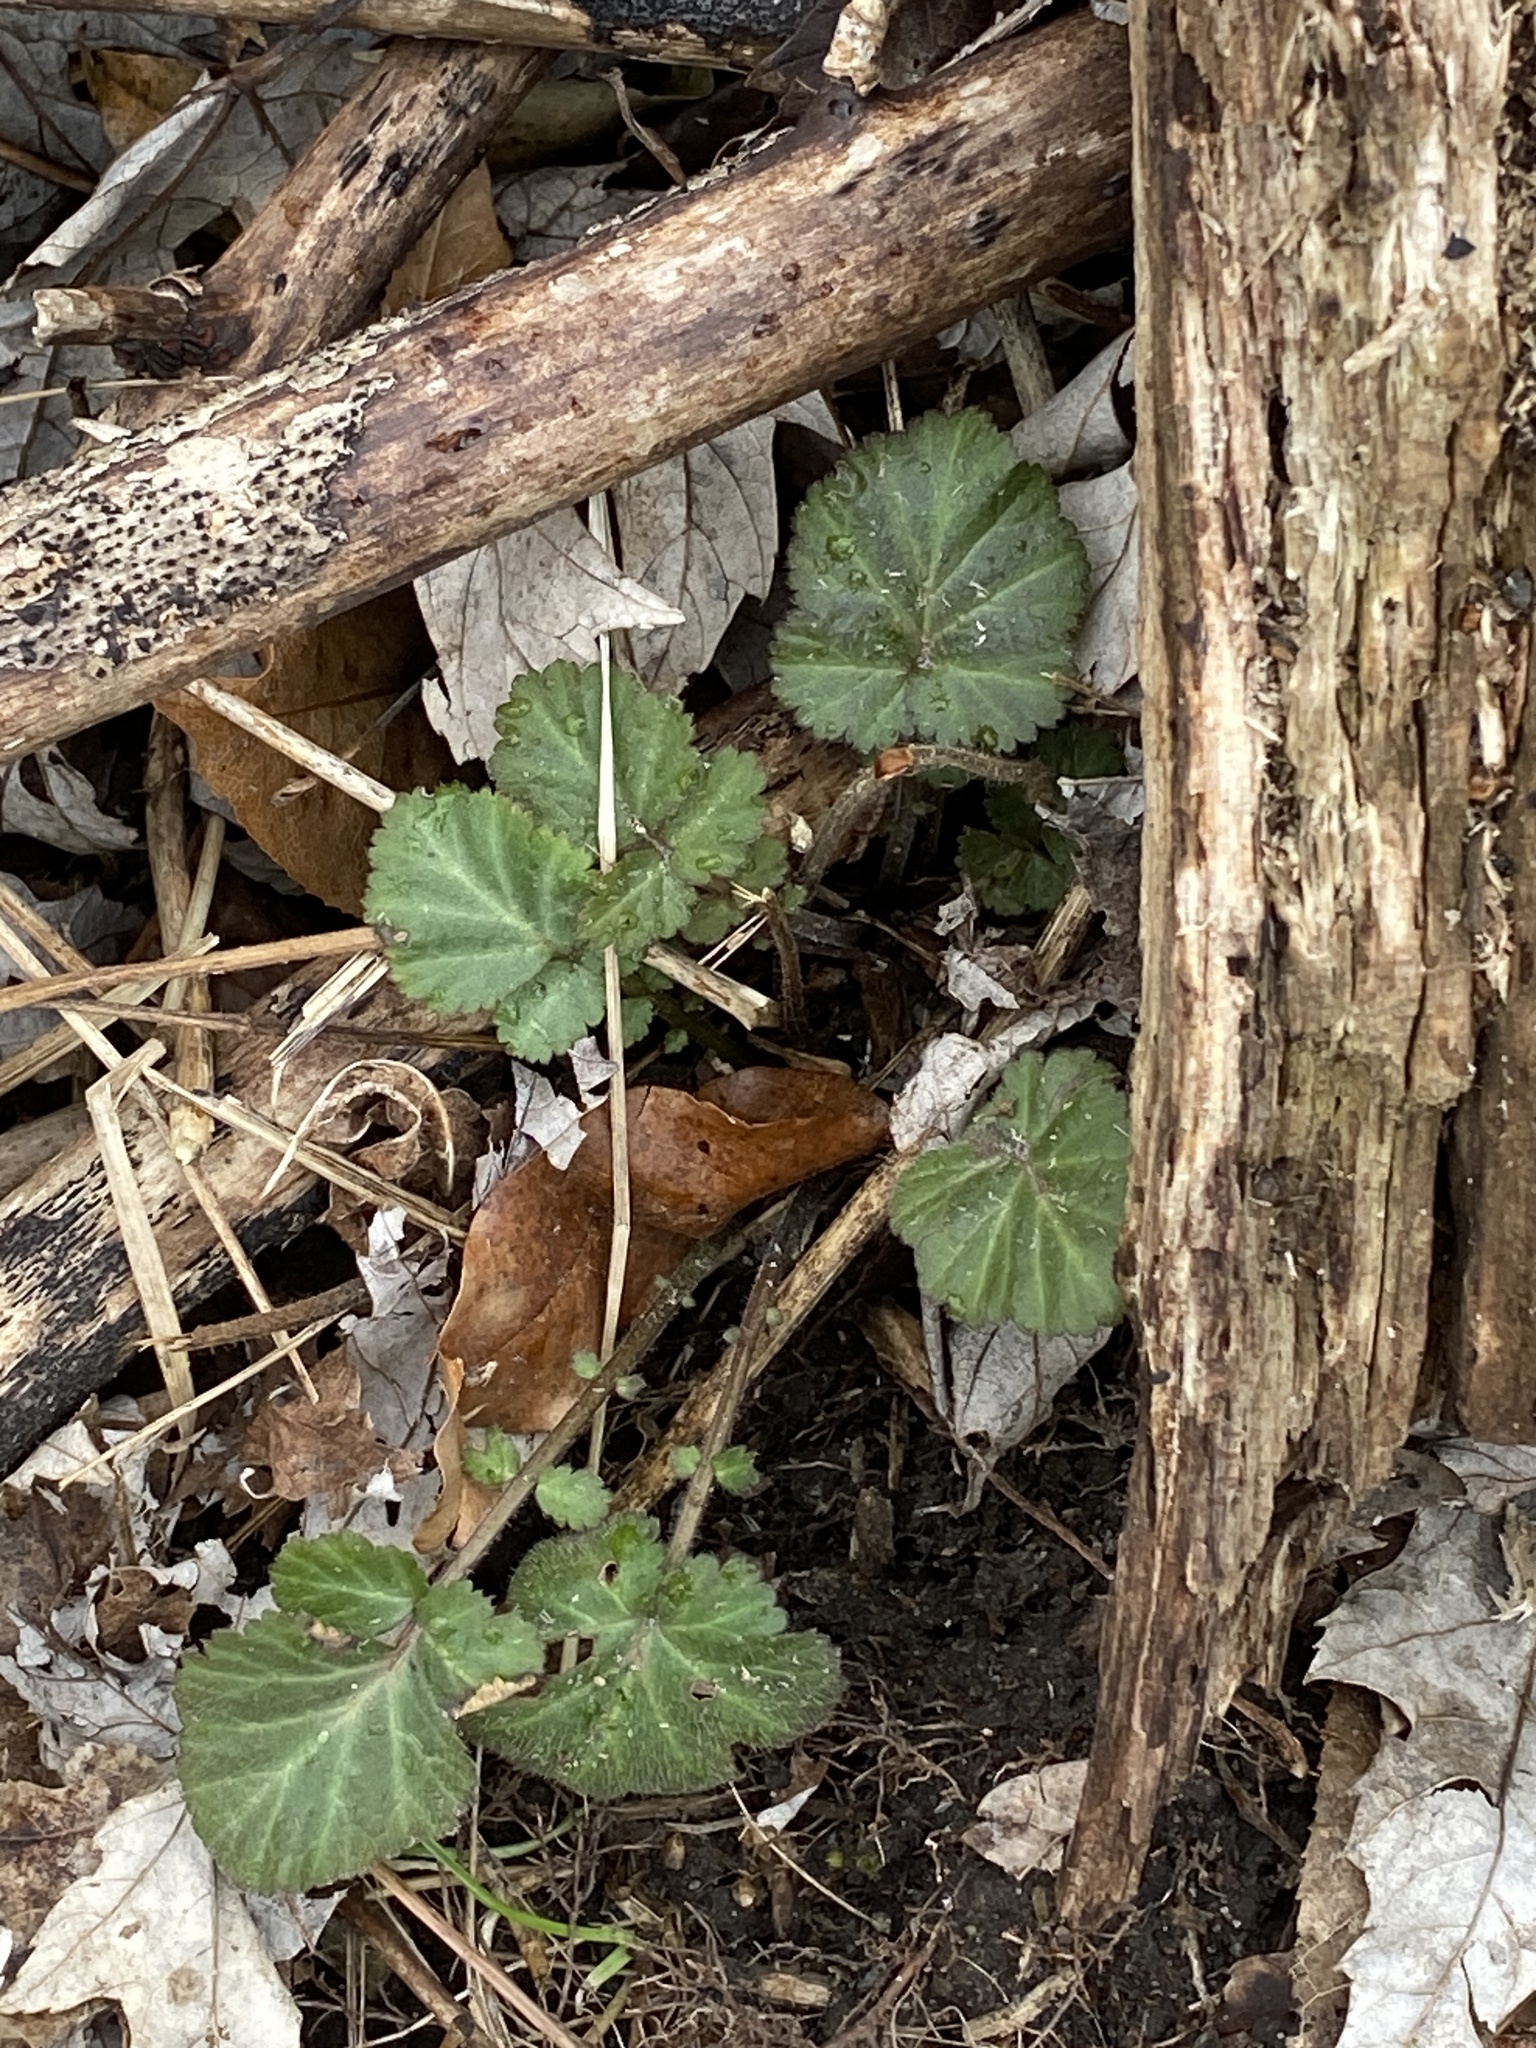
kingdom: Plantae
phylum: Tracheophyta
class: Magnoliopsida
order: Rosales
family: Rosaceae
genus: Geum
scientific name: Geum canadense
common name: White avens
